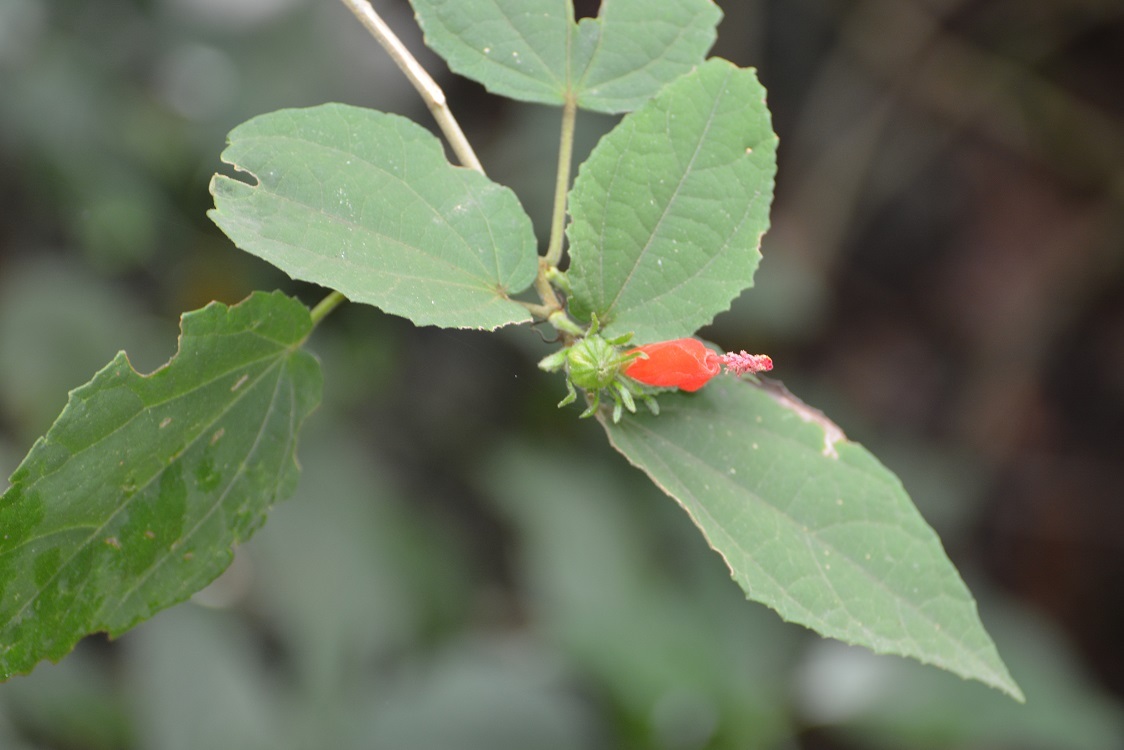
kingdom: Plantae
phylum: Tracheophyta
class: Magnoliopsida
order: Malvales
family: Malvaceae
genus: Malvaviscus
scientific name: Malvaviscus arboreus
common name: Wax mallow
